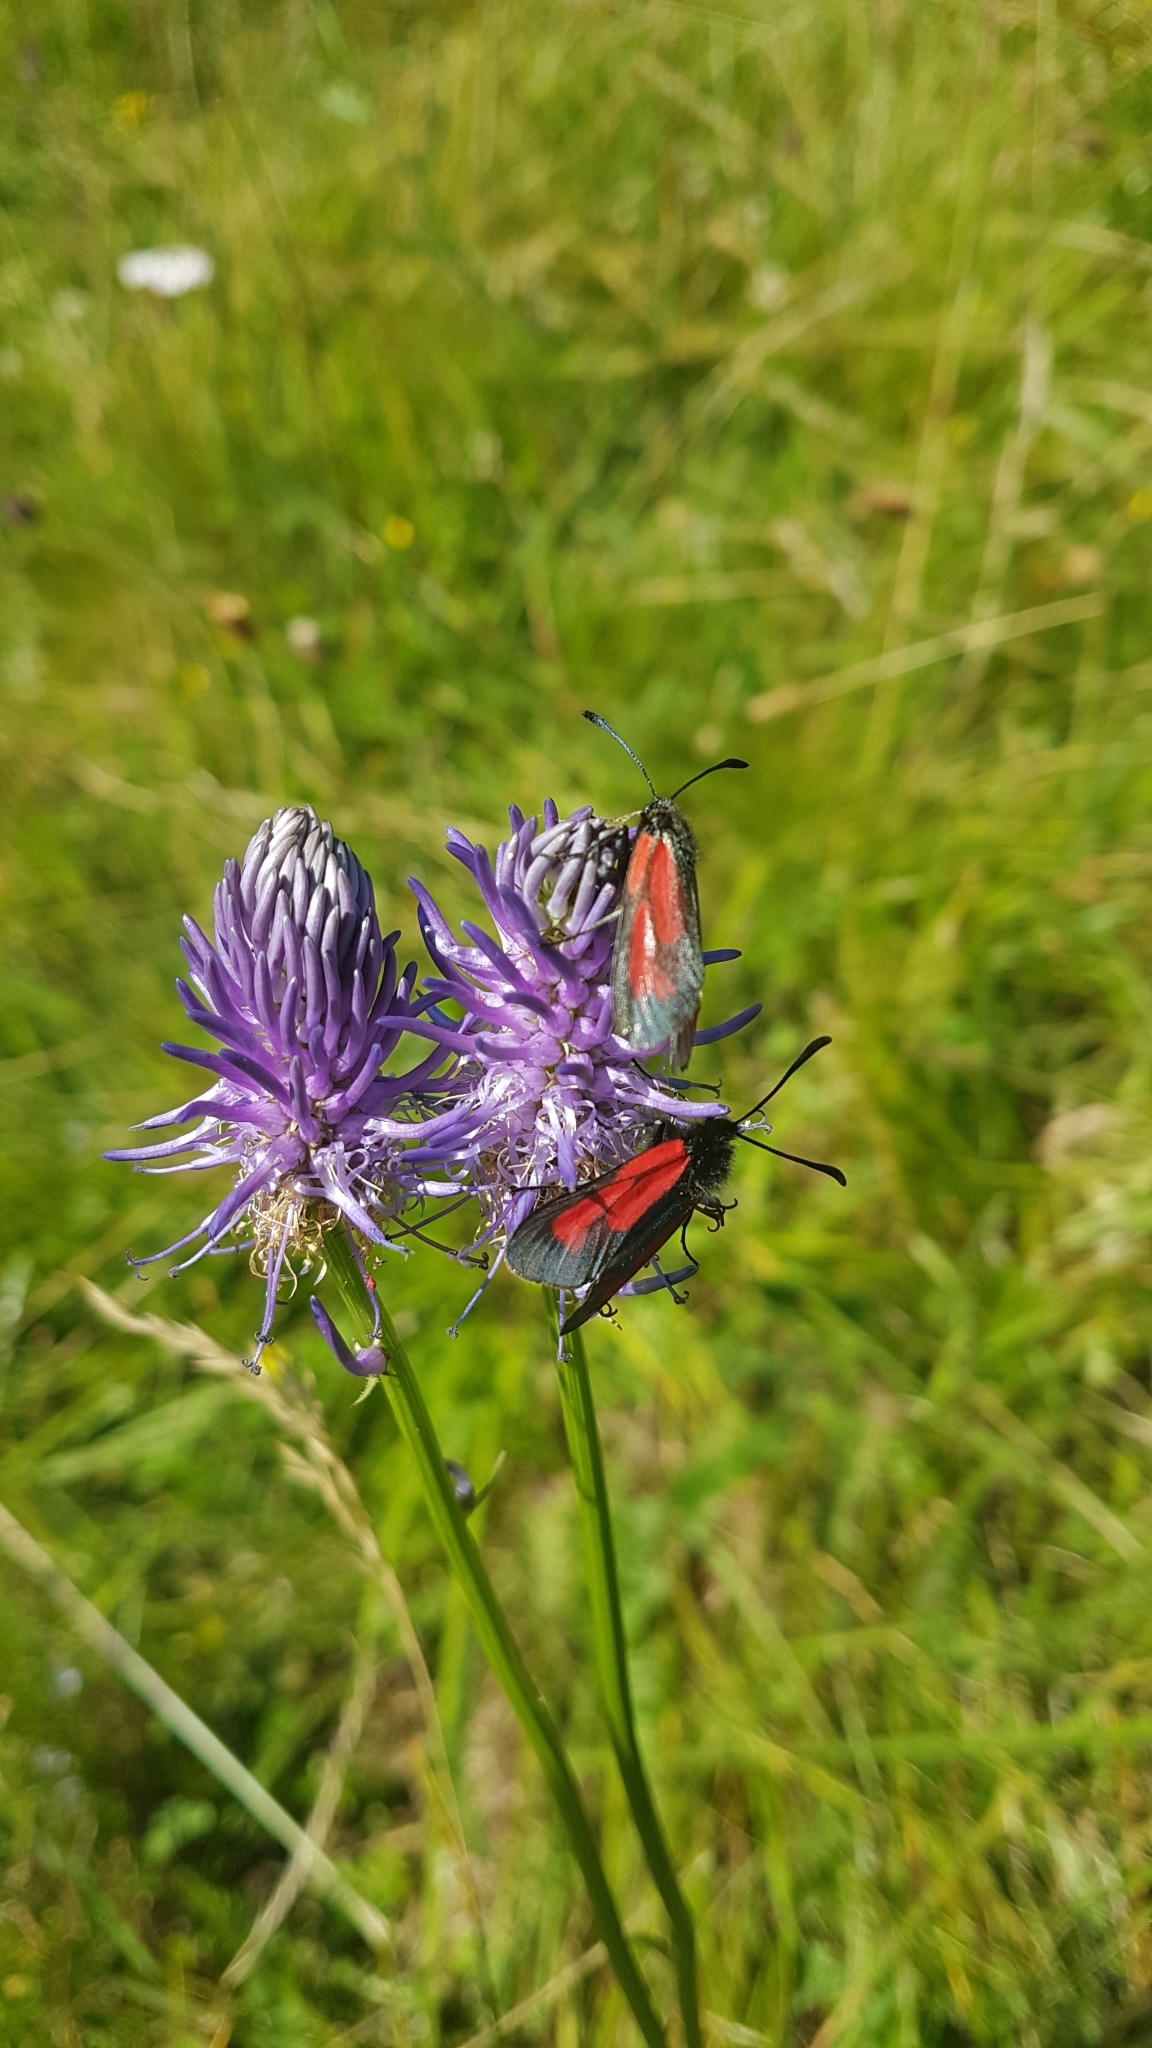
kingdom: Animalia
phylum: Arthropoda
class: Insecta
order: Lepidoptera
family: Zygaenidae
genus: Zygaena
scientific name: Zygaena purpuralis
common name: Transparent burnet
